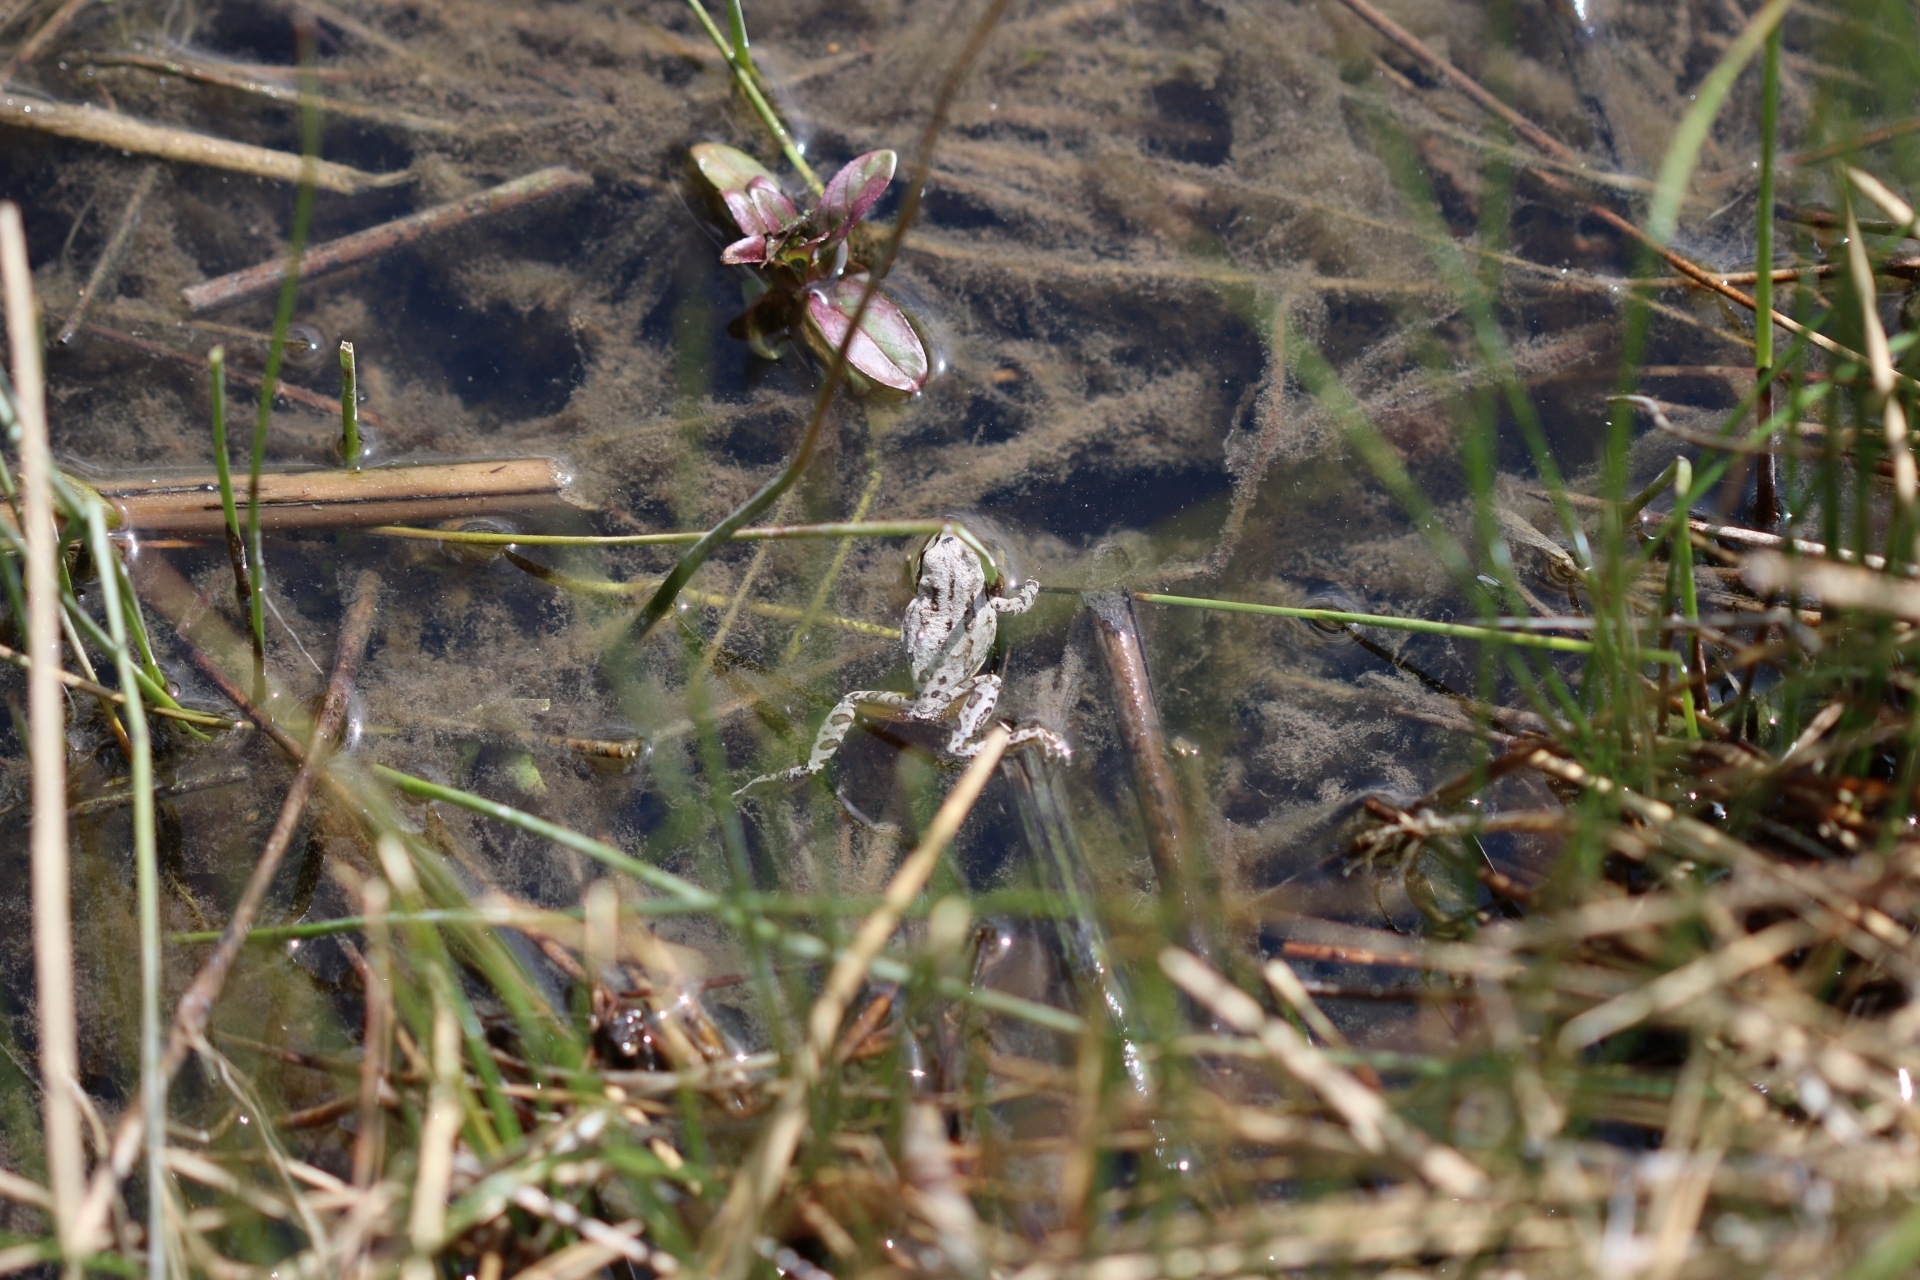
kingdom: Animalia
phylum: Chordata
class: Amphibia
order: Anura
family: Hylidae
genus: Pseudacris
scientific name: Pseudacris regilla
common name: Pacific chorus frog
